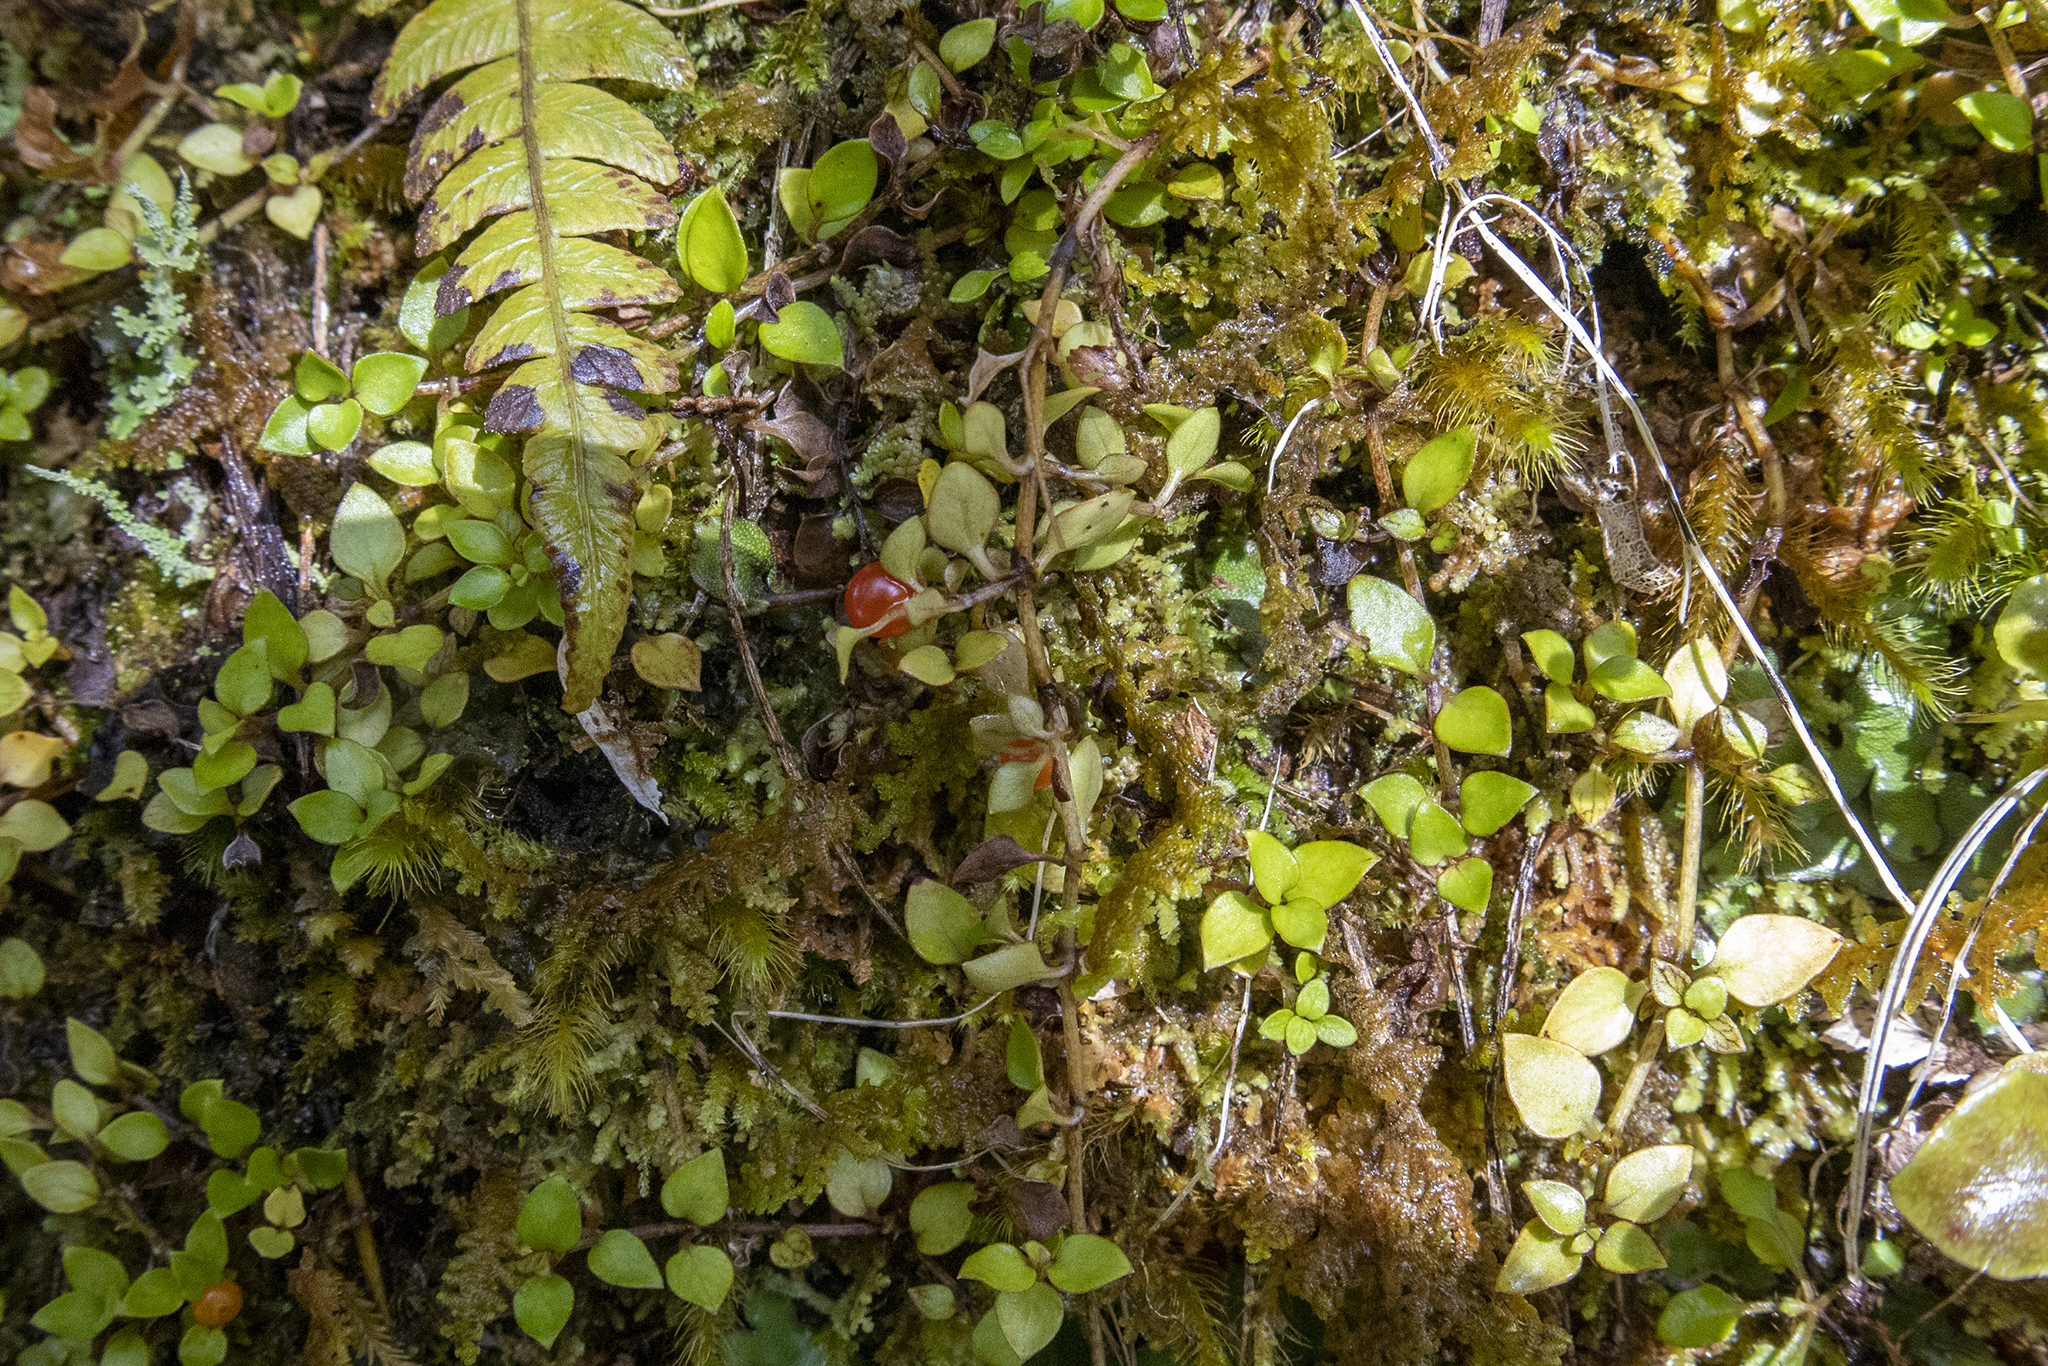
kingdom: Plantae
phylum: Tracheophyta
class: Magnoliopsida
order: Gentianales
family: Rubiaceae
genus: Nertera
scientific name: Nertera granadensis
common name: Beadplant
